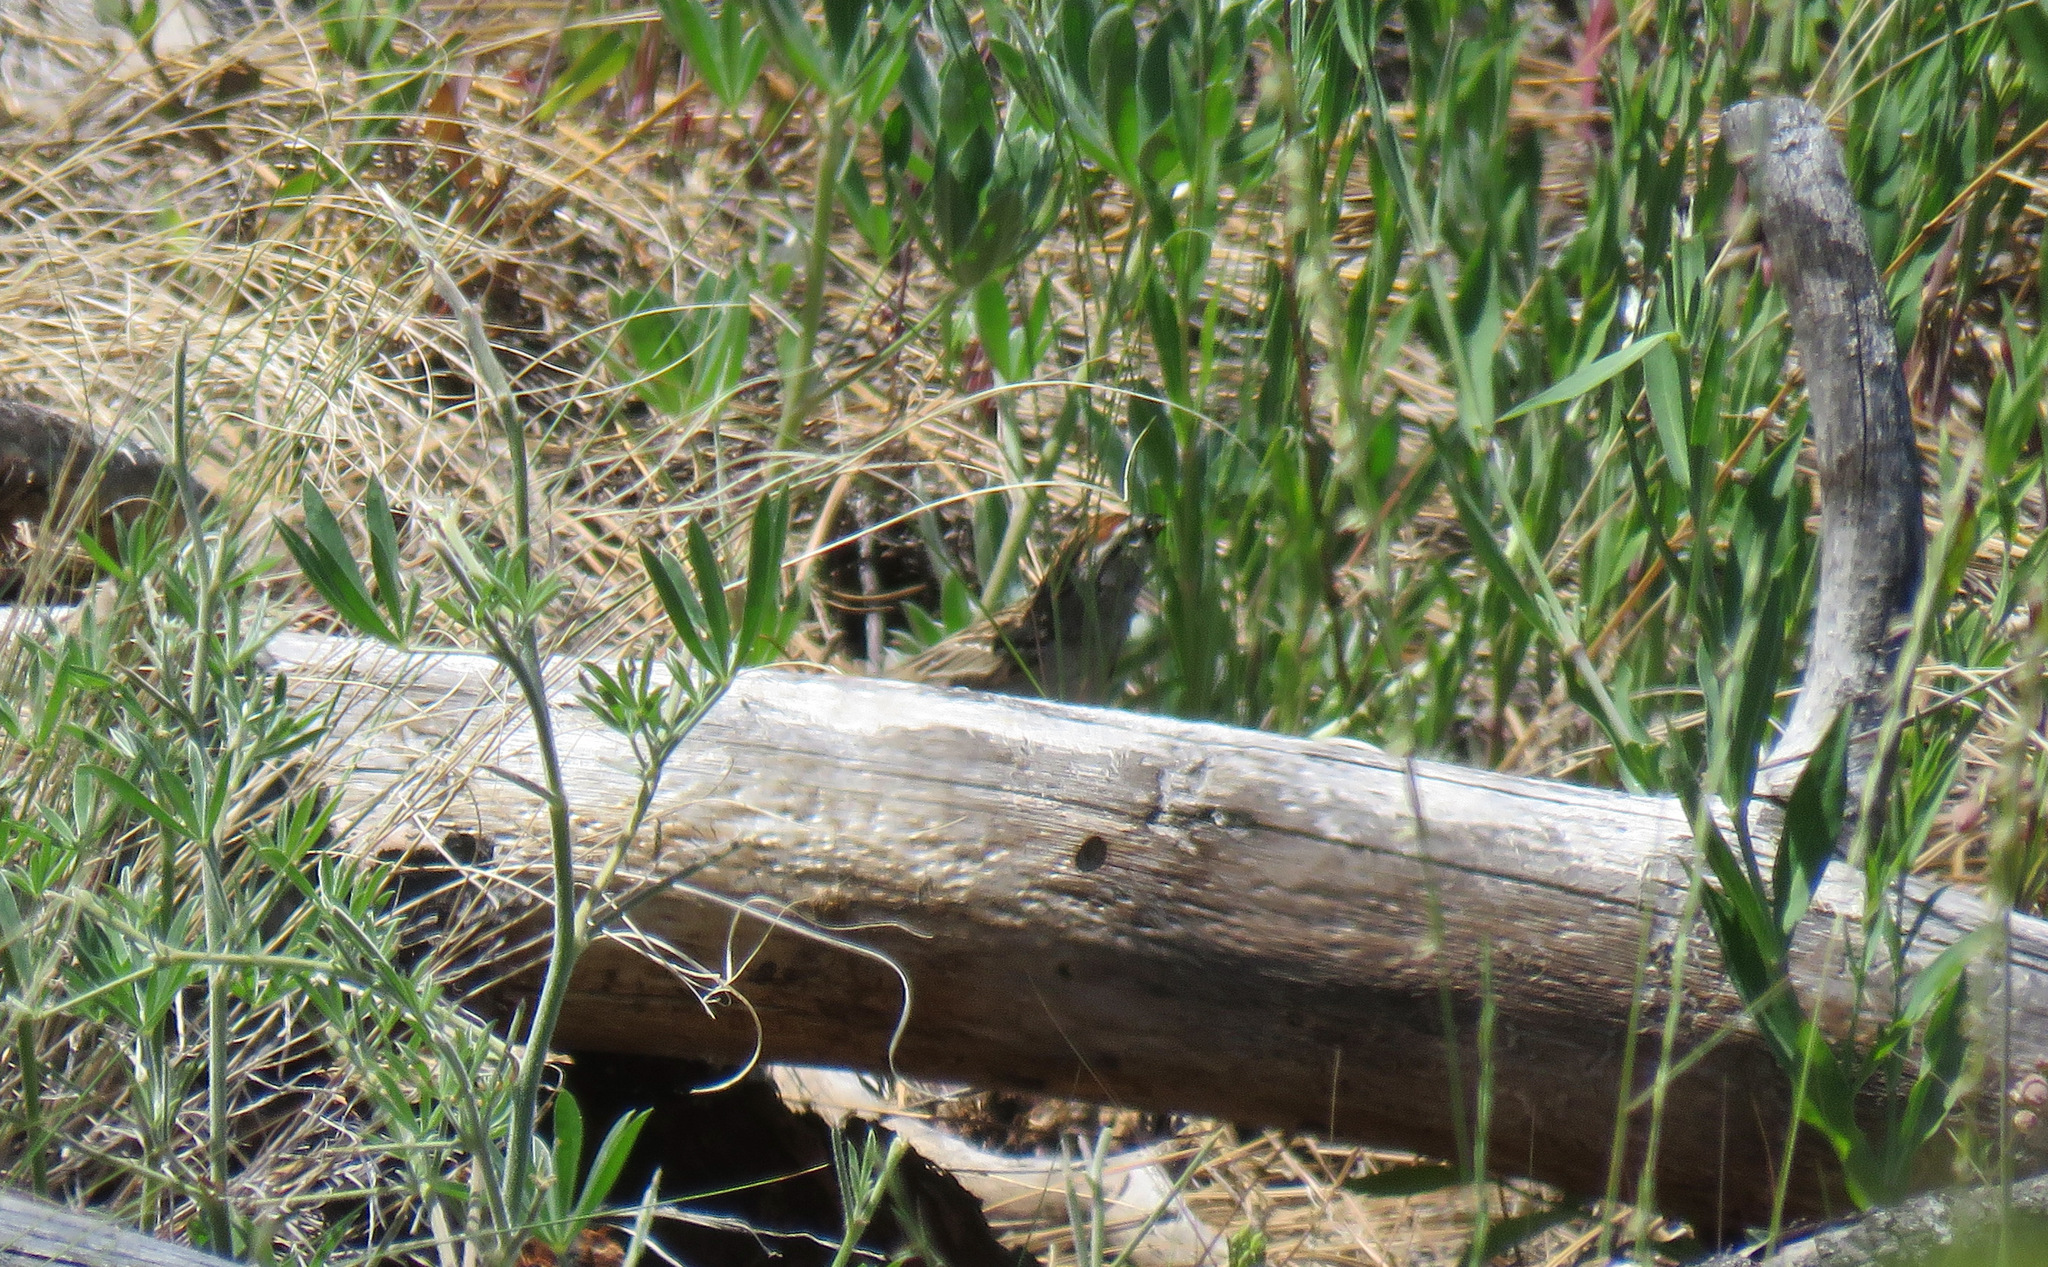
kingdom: Animalia
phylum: Chordata
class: Aves
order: Passeriformes
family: Passerellidae
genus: Spizella
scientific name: Spizella passerina
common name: Chipping sparrow
